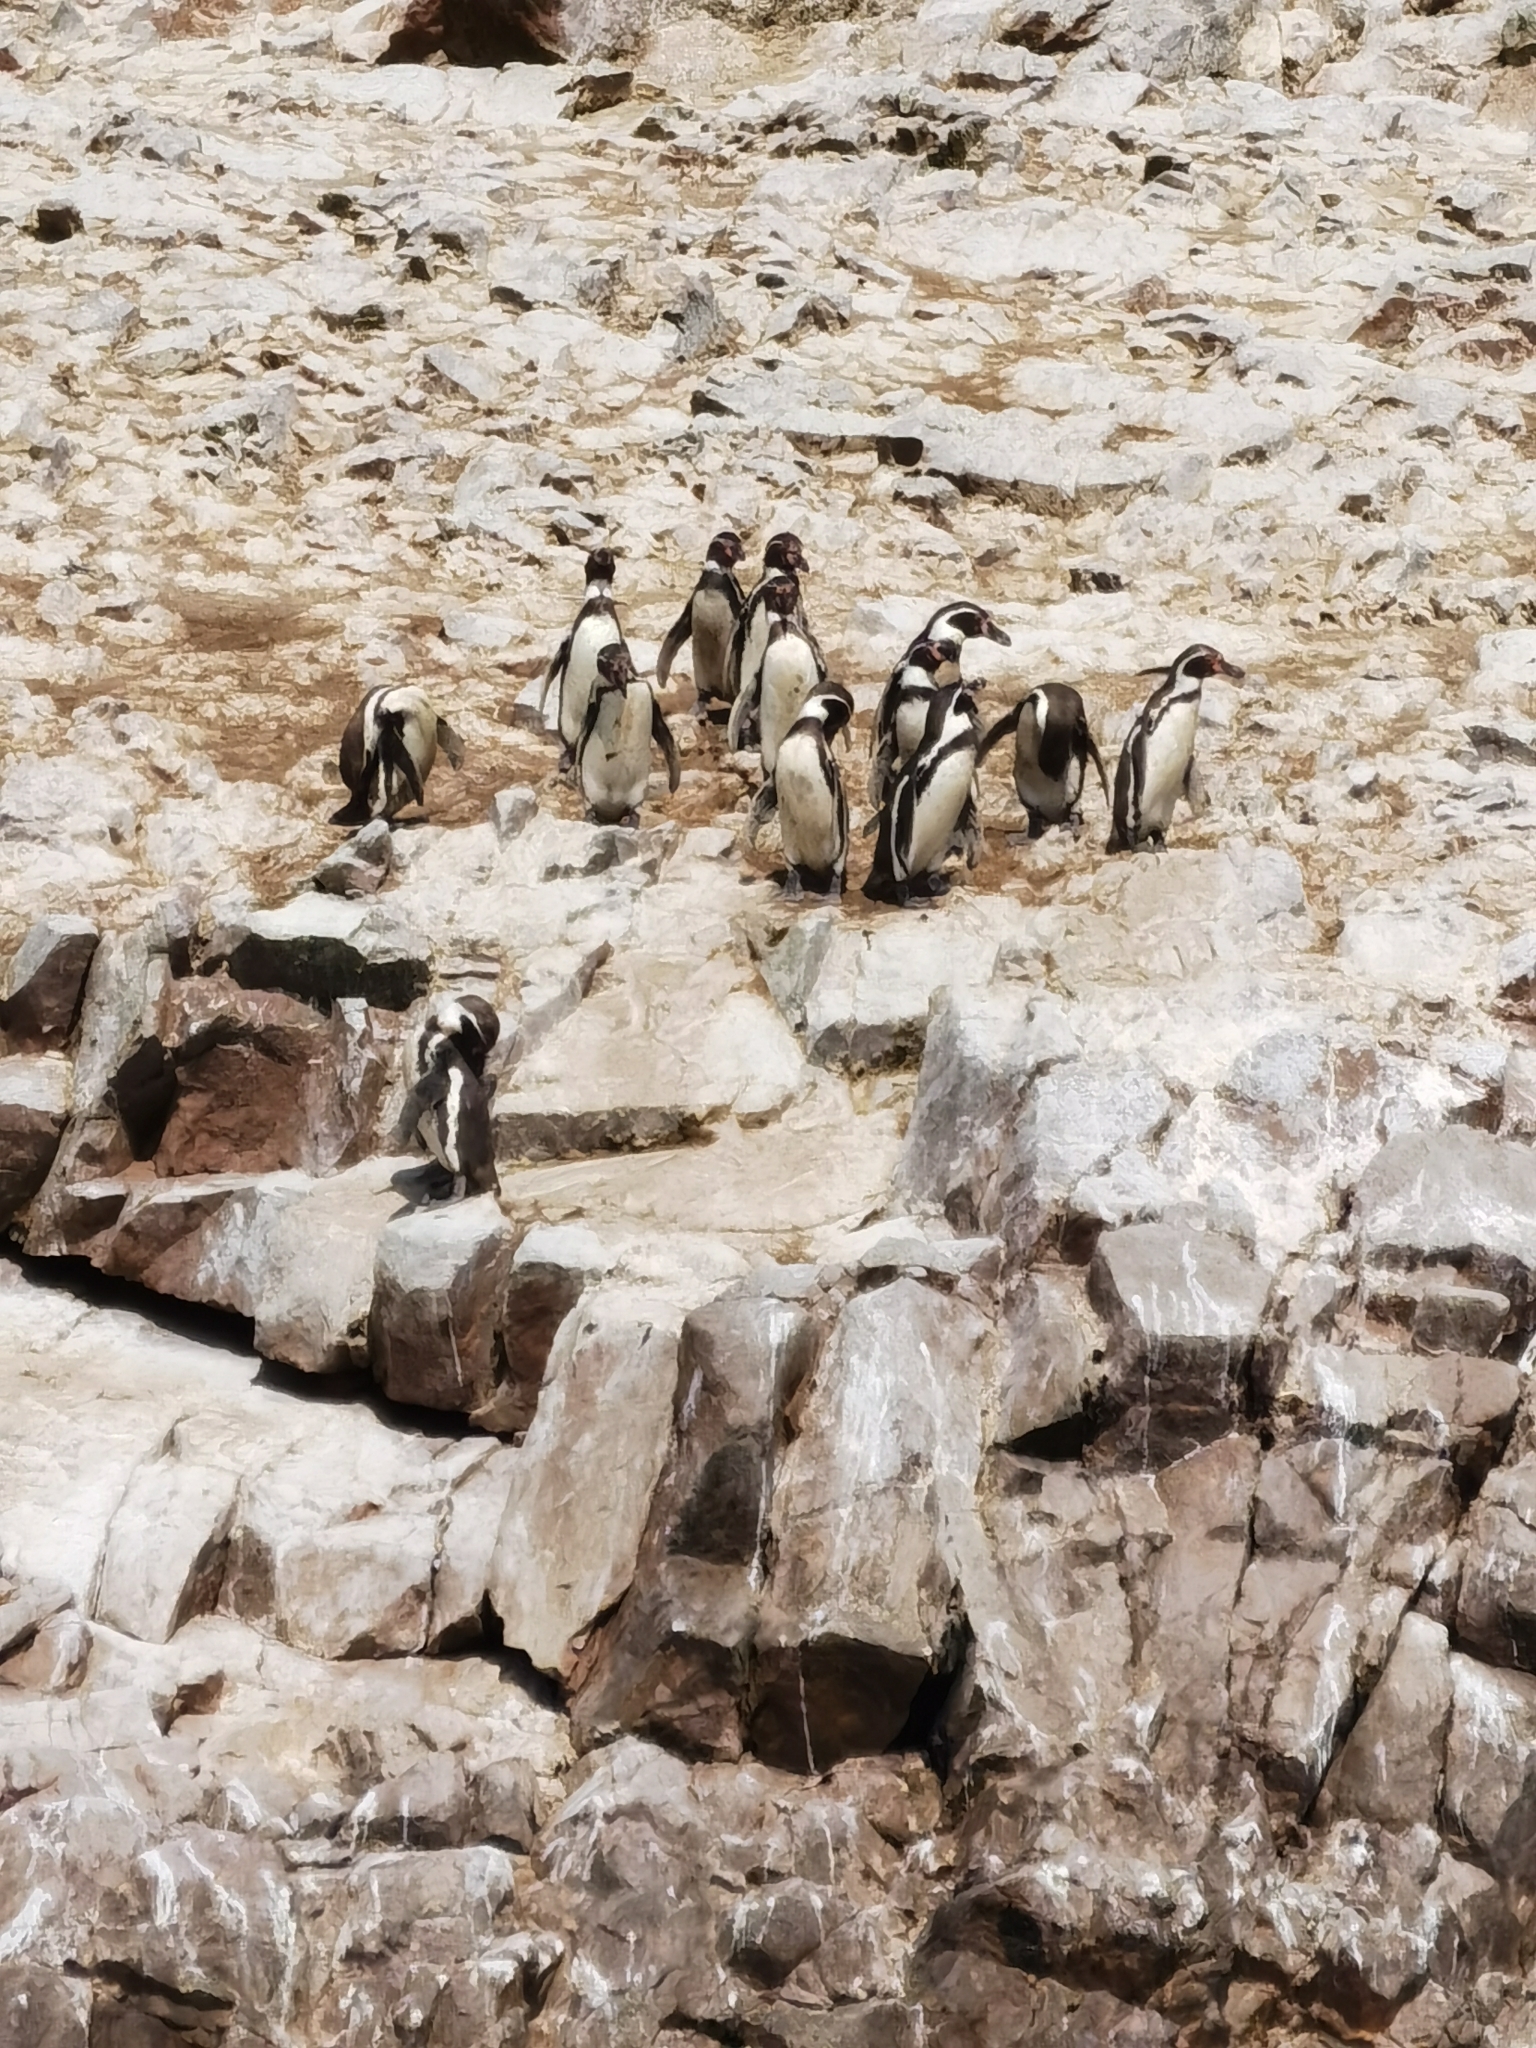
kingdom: Animalia
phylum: Chordata
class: Aves
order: Sphenisciformes
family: Spheniscidae
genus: Spheniscus
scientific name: Spheniscus humboldti
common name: Humboldt penguin
